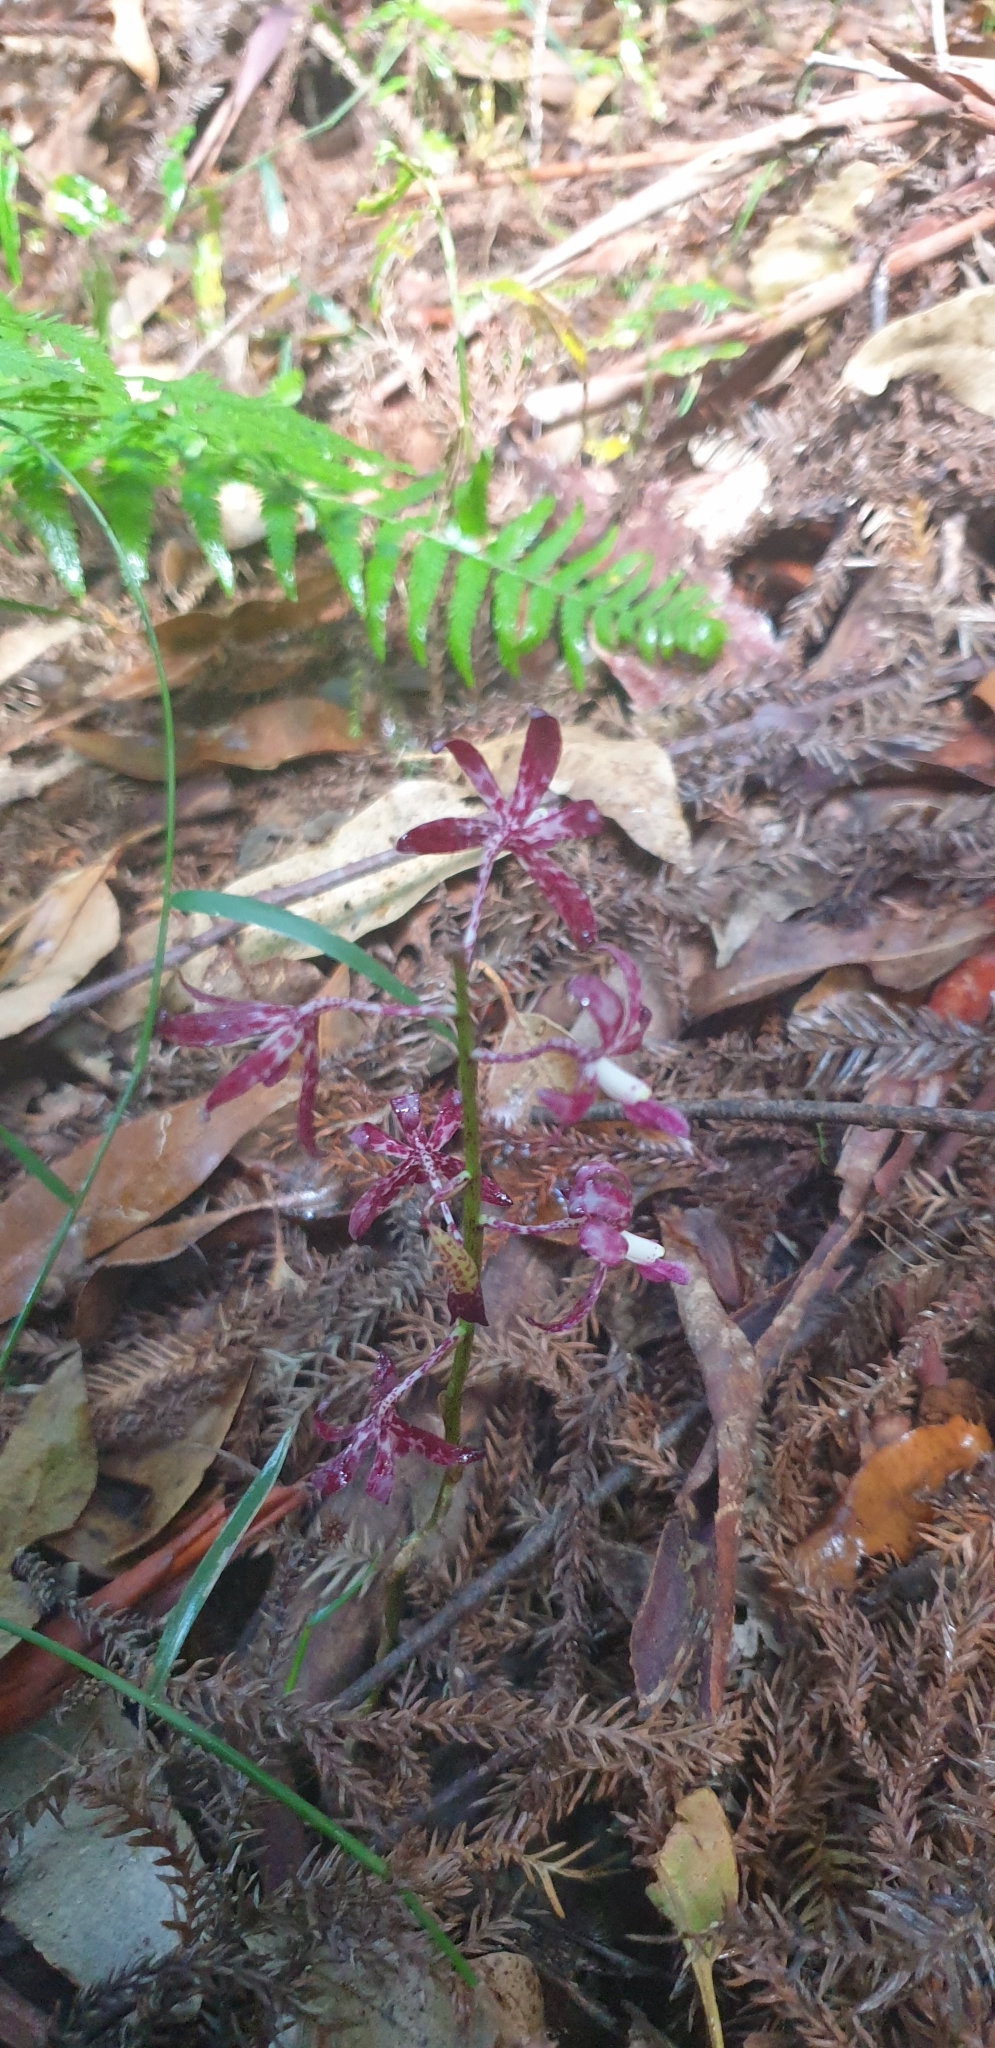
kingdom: Plantae
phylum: Tracheophyta
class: Liliopsida
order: Asparagales
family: Orchidaceae
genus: Dipodium
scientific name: Dipodium variegatum
